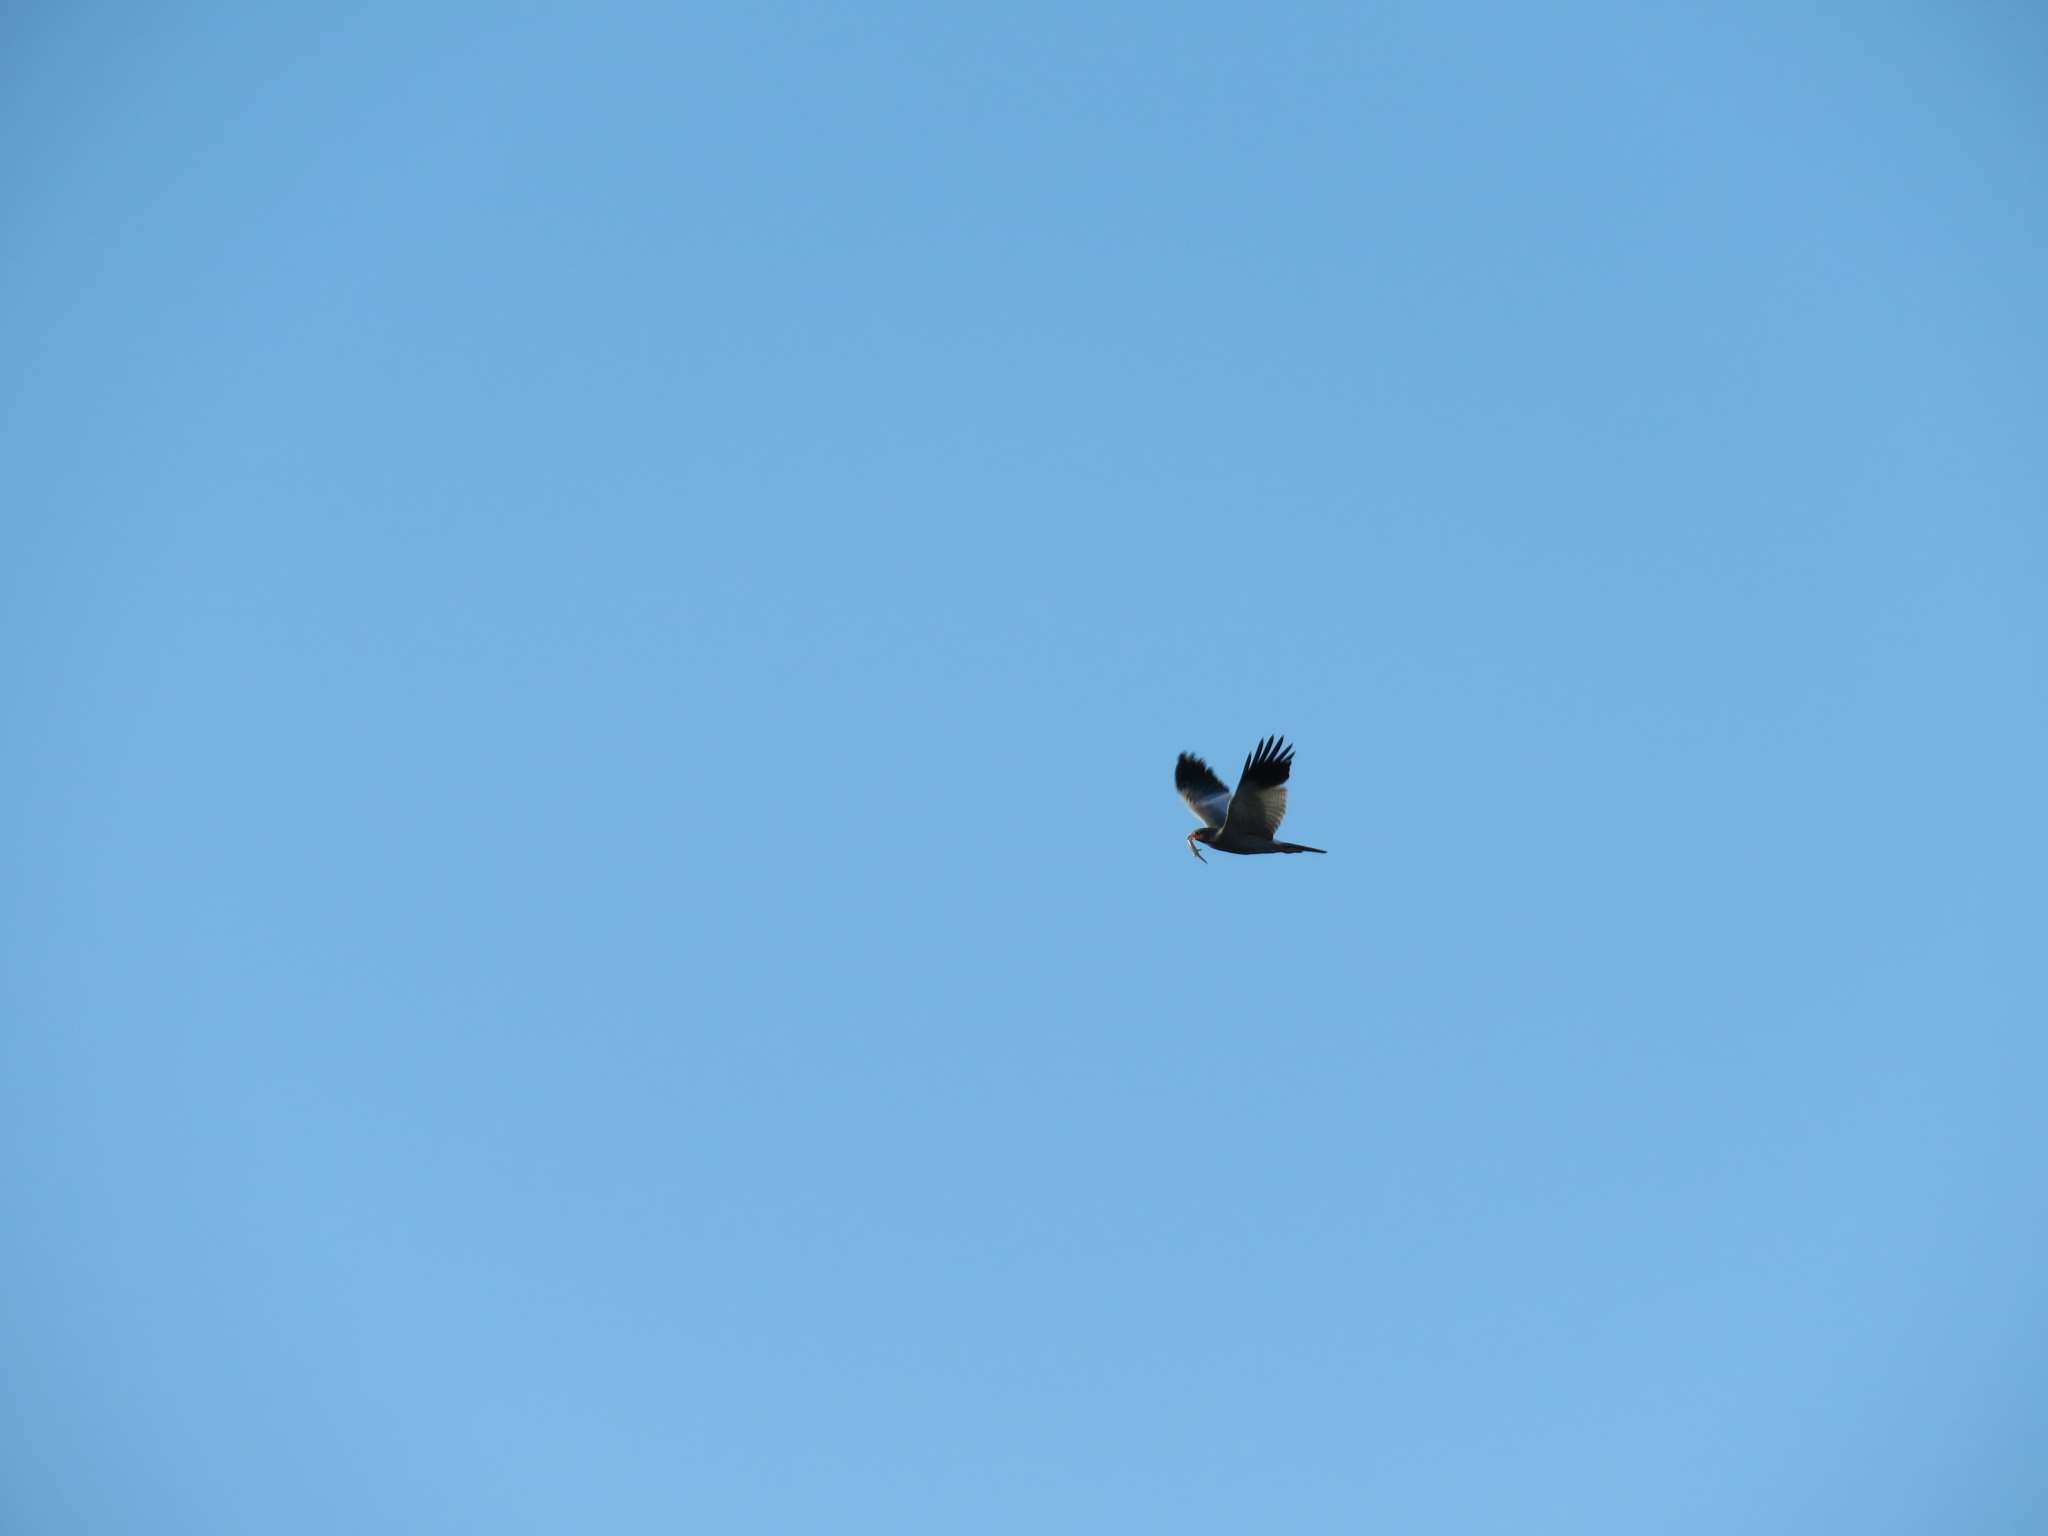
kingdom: Animalia
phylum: Chordata
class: Aves
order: Accipitriformes
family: Accipitridae
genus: Melierax
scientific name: Melierax canorus
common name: Pale chanting-goshawk
